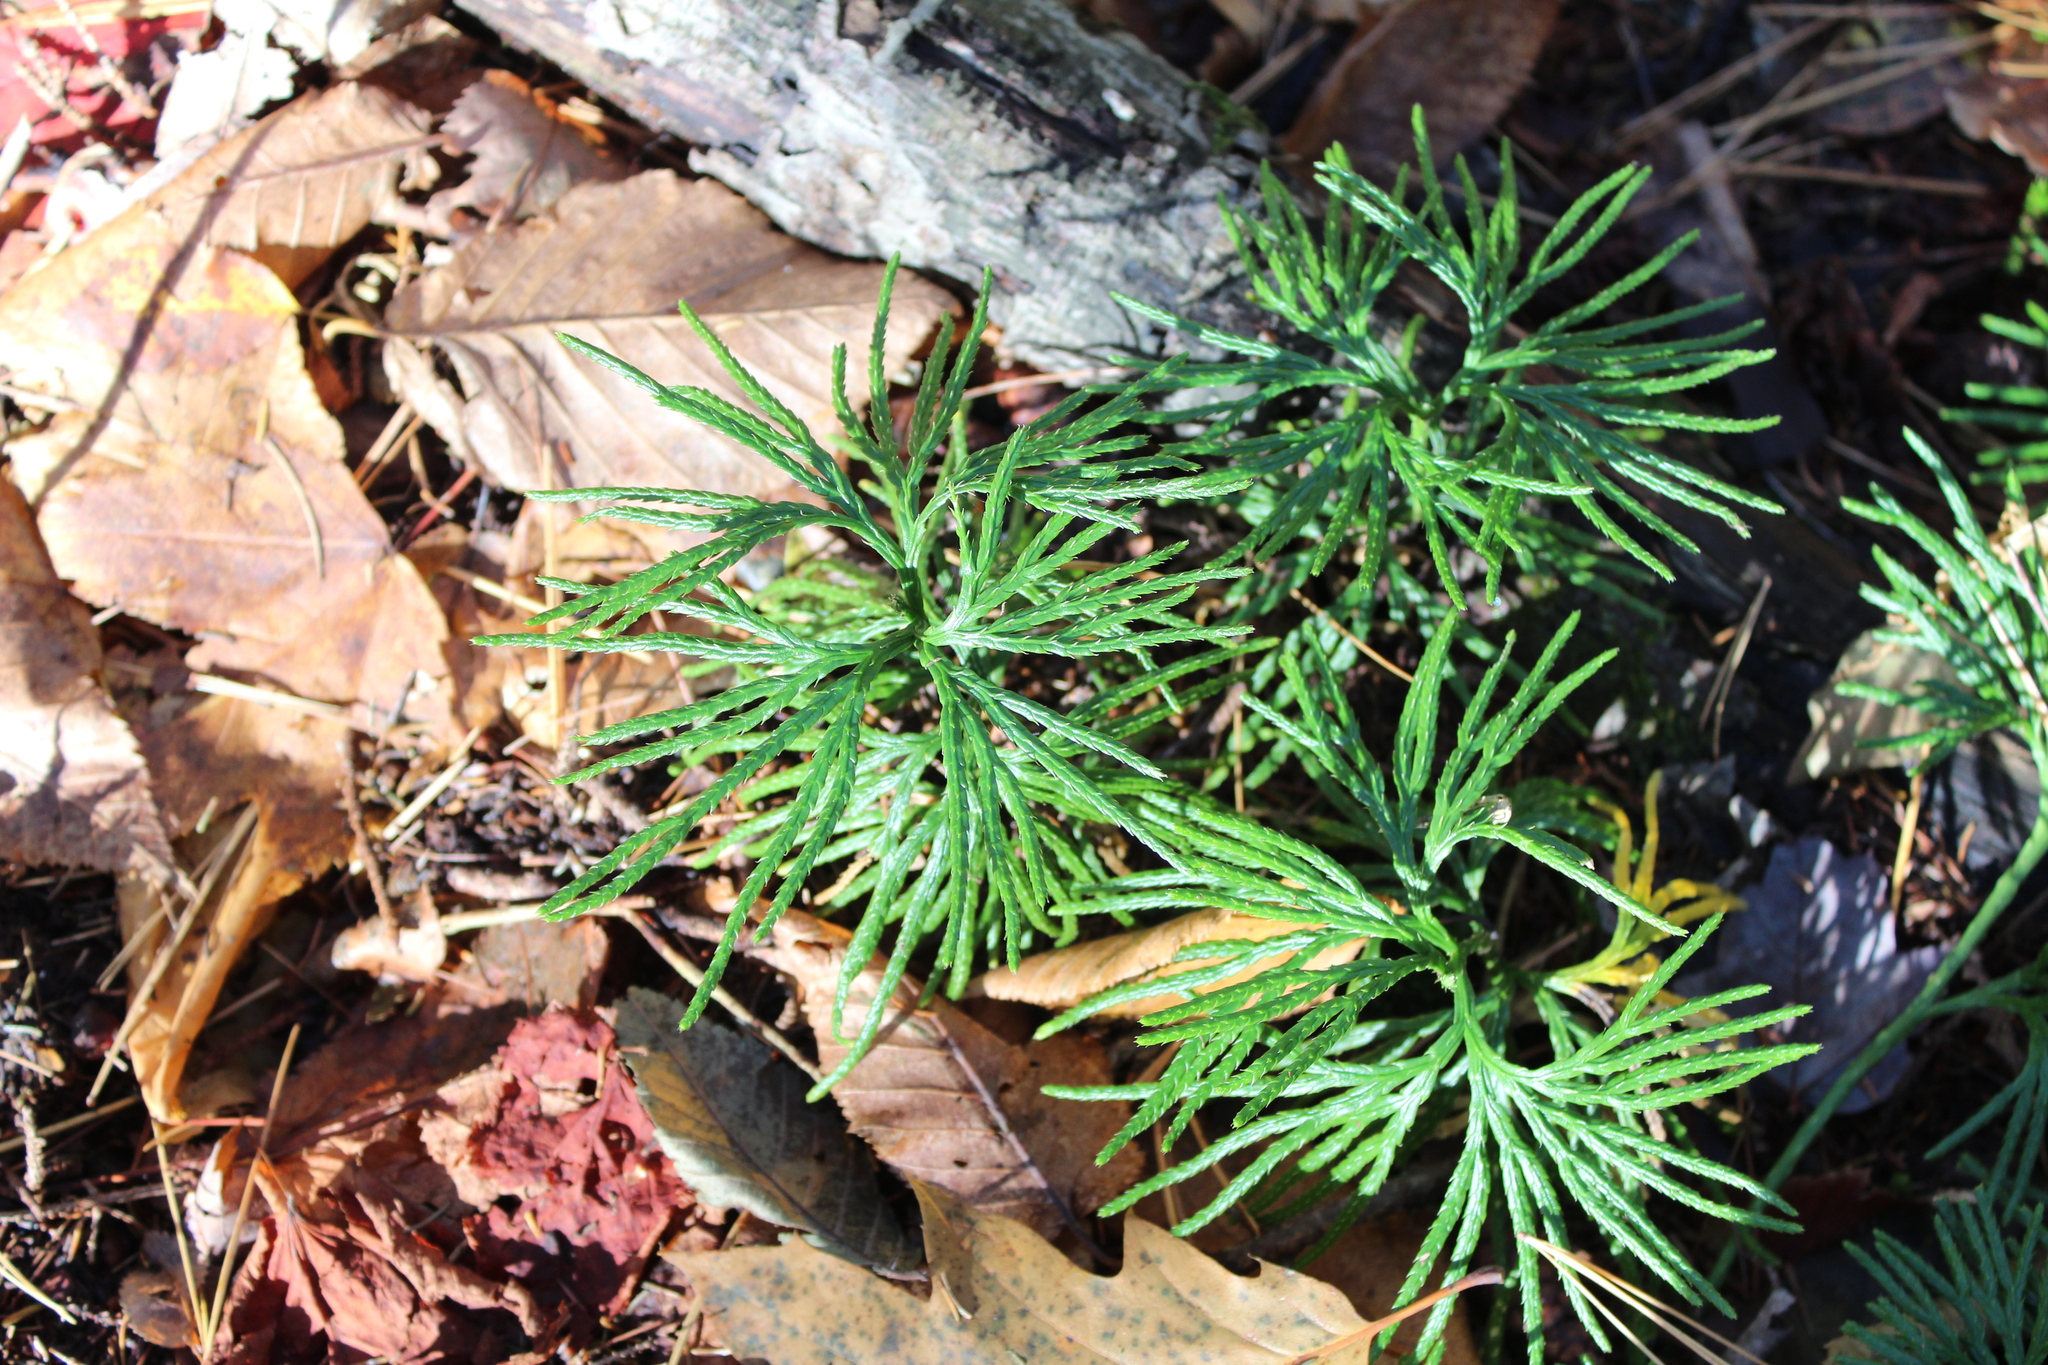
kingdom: Plantae
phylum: Tracheophyta
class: Lycopodiopsida
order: Lycopodiales
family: Lycopodiaceae
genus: Diphasiastrum
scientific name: Diphasiastrum digitatum
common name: Southern running-pine
